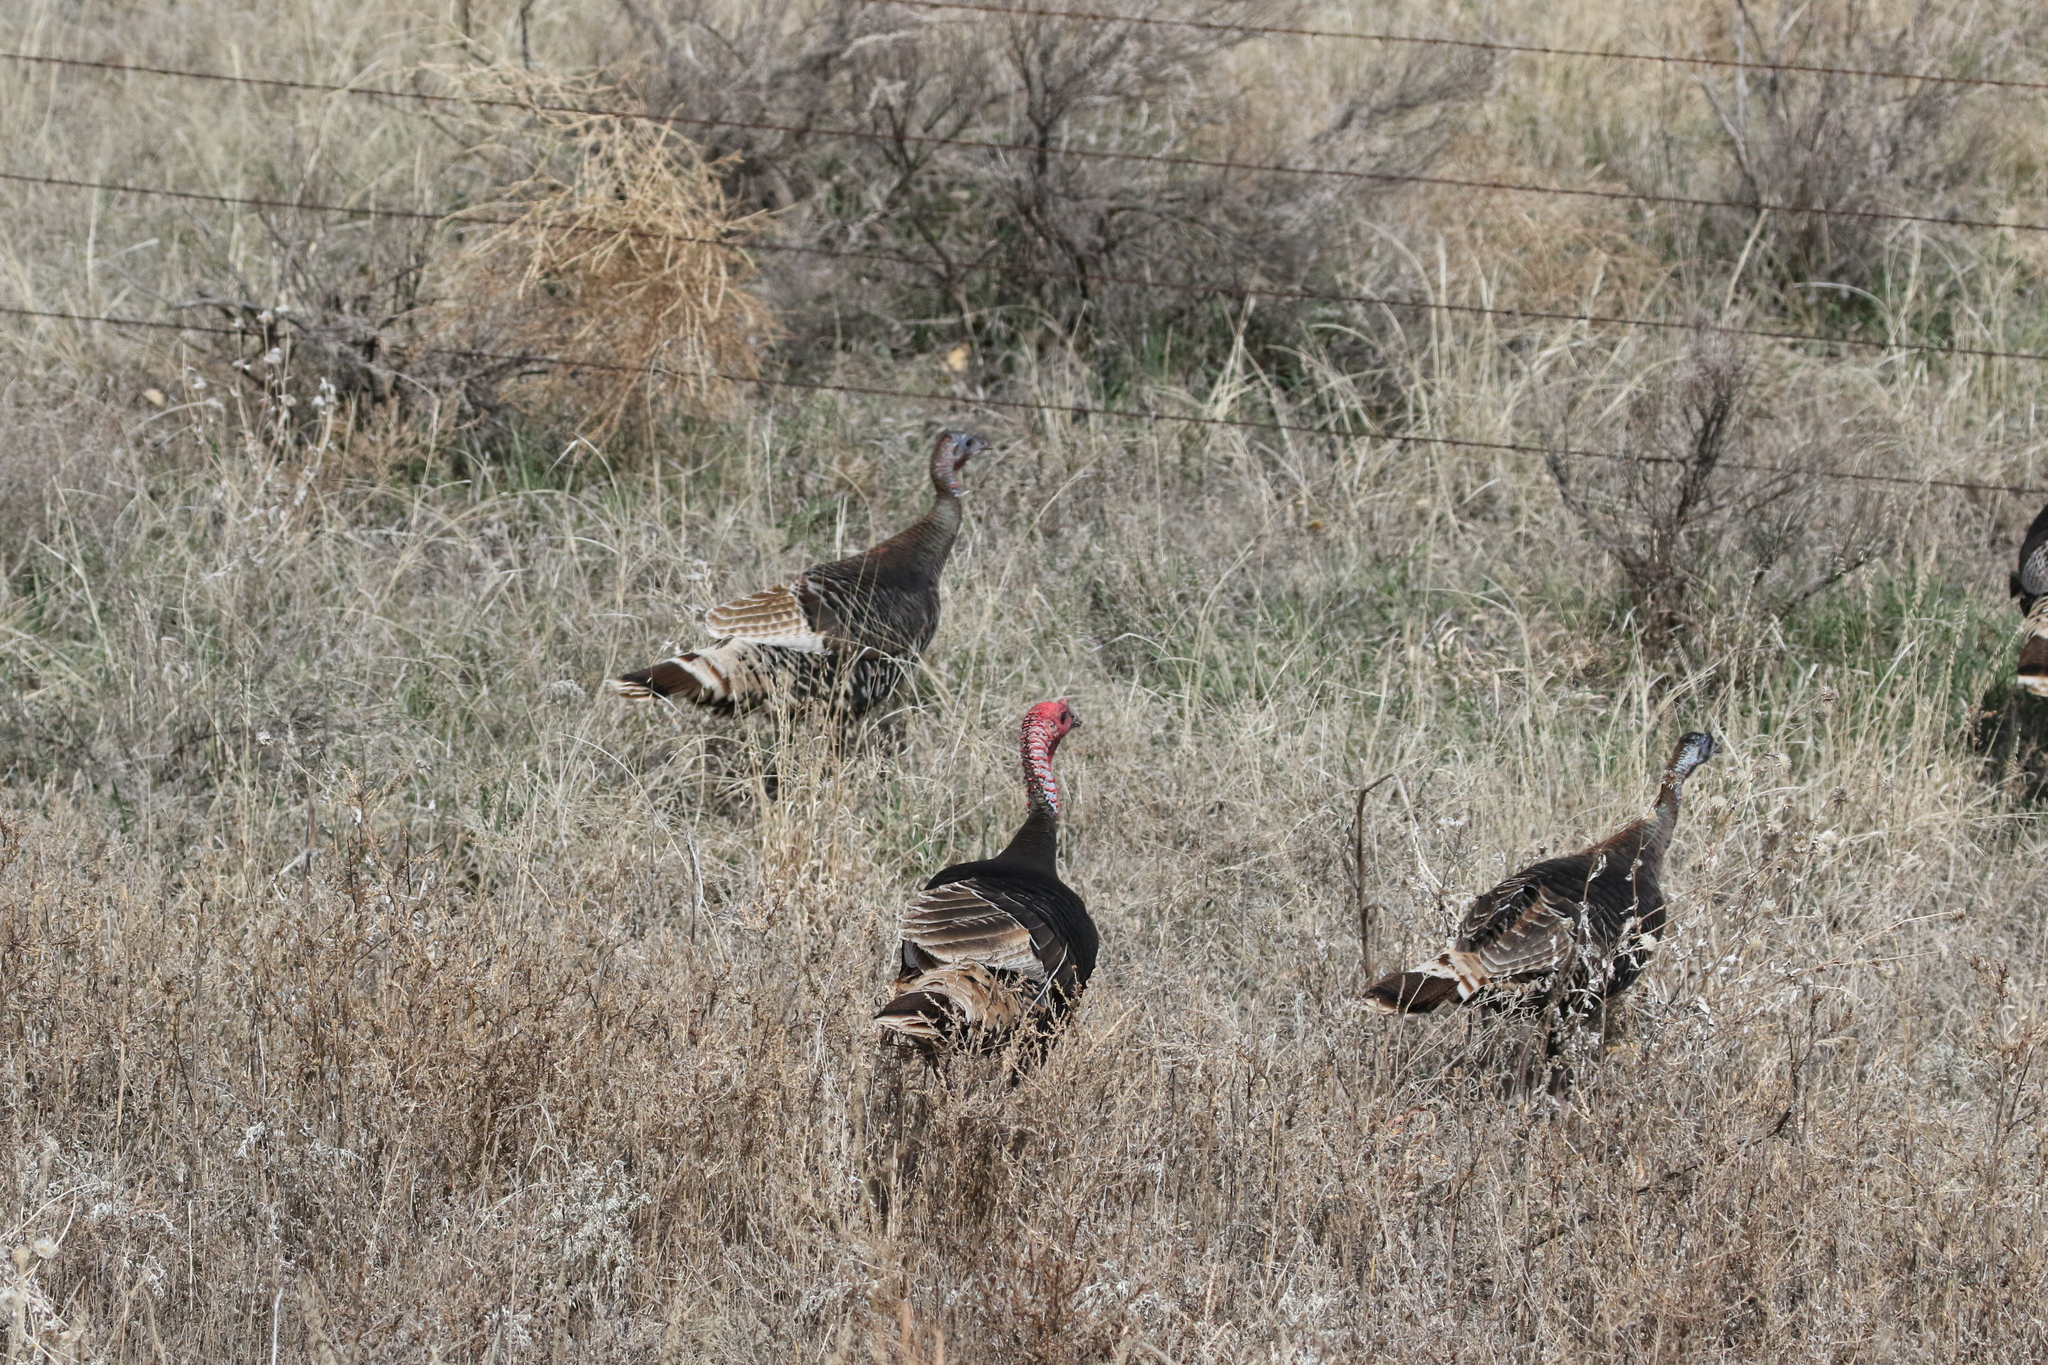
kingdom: Animalia
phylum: Chordata
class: Aves
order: Galliformes
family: Phasianidae
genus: Meleagris
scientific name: Meleagris gallopavo
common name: Wild turkey
